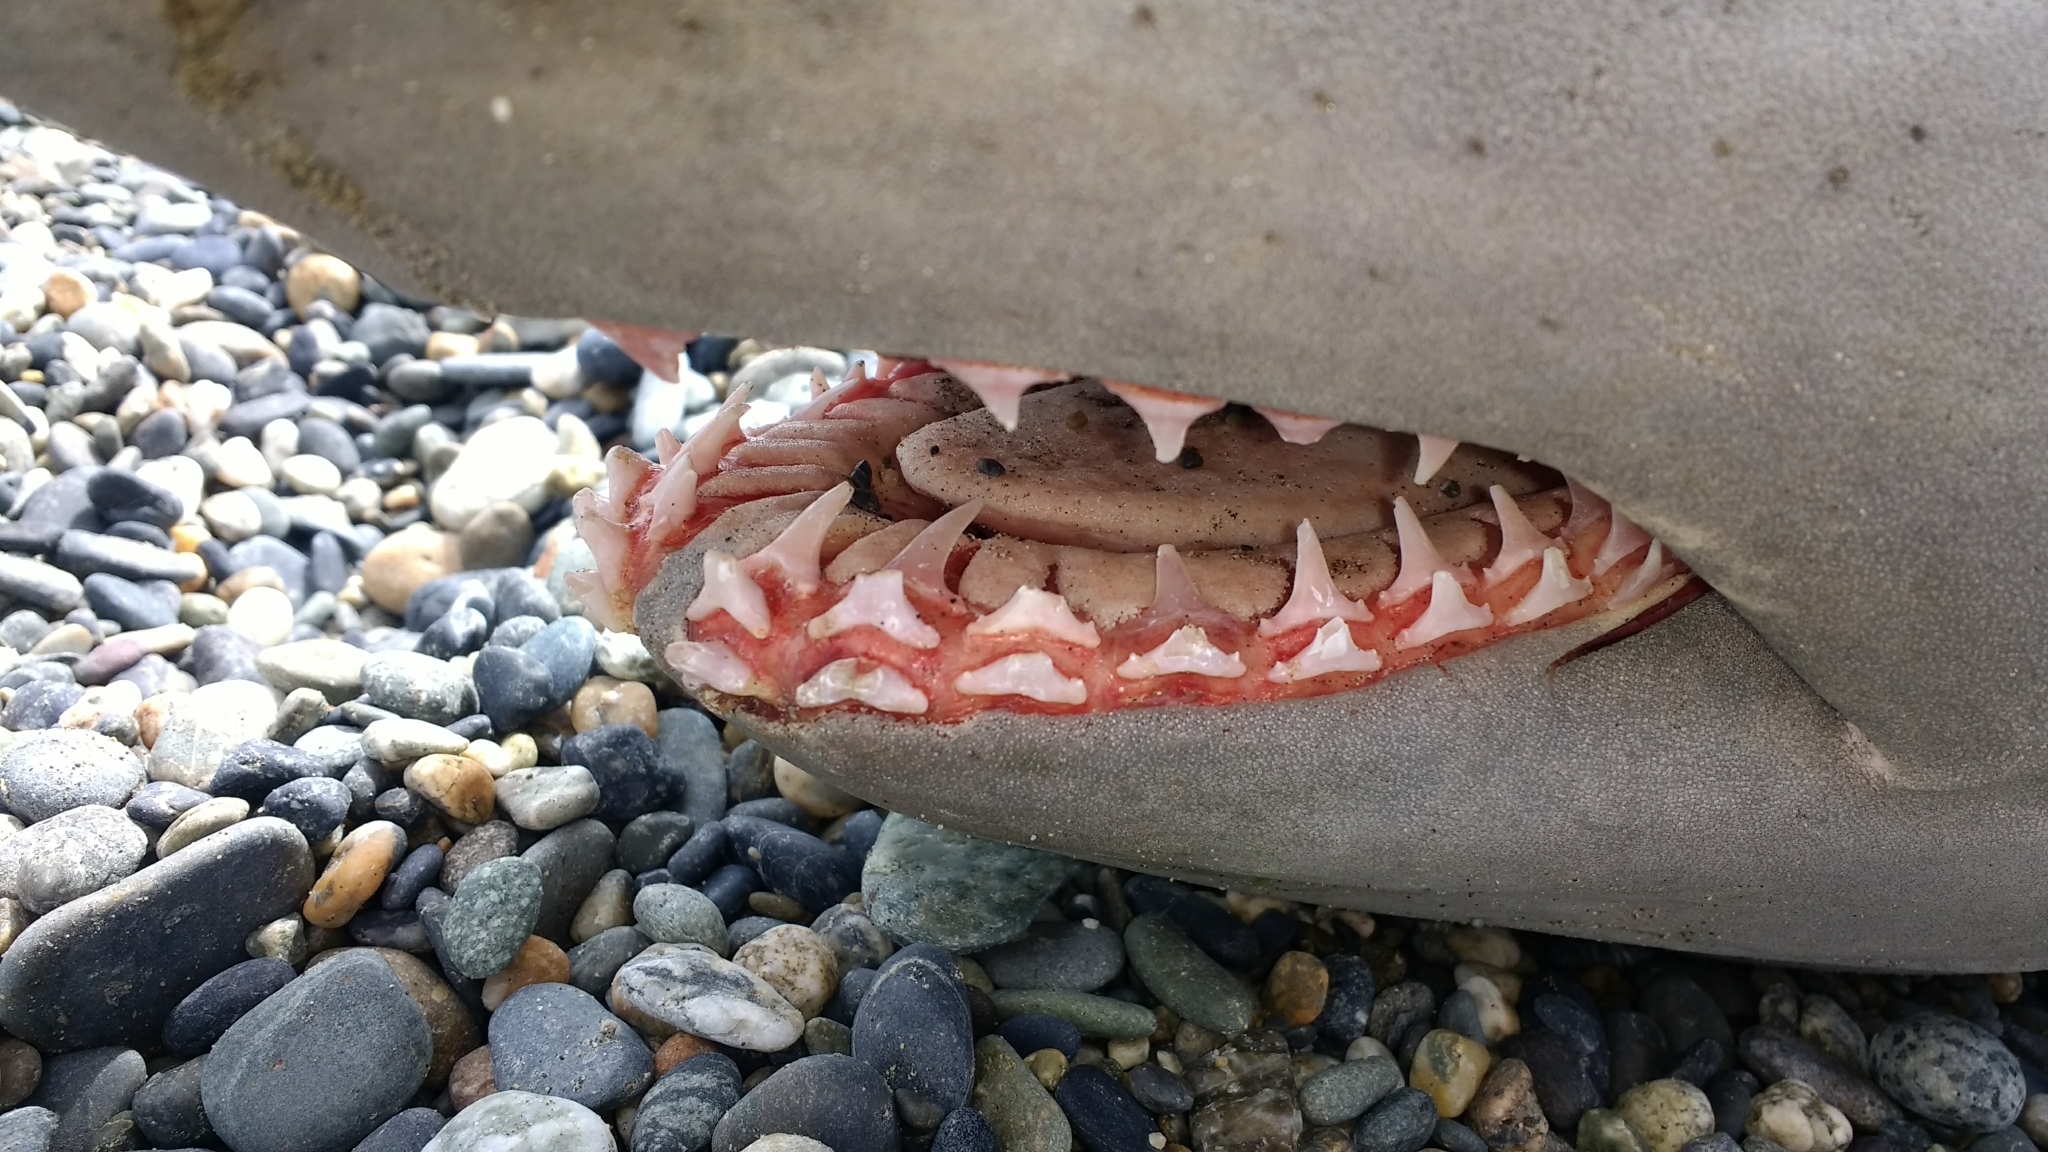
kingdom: Animalia
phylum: Chordata
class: Elasmobranchii
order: Lamniformes
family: Lamnidae
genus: Lamna
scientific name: Lamna nasus
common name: Porbeagle
